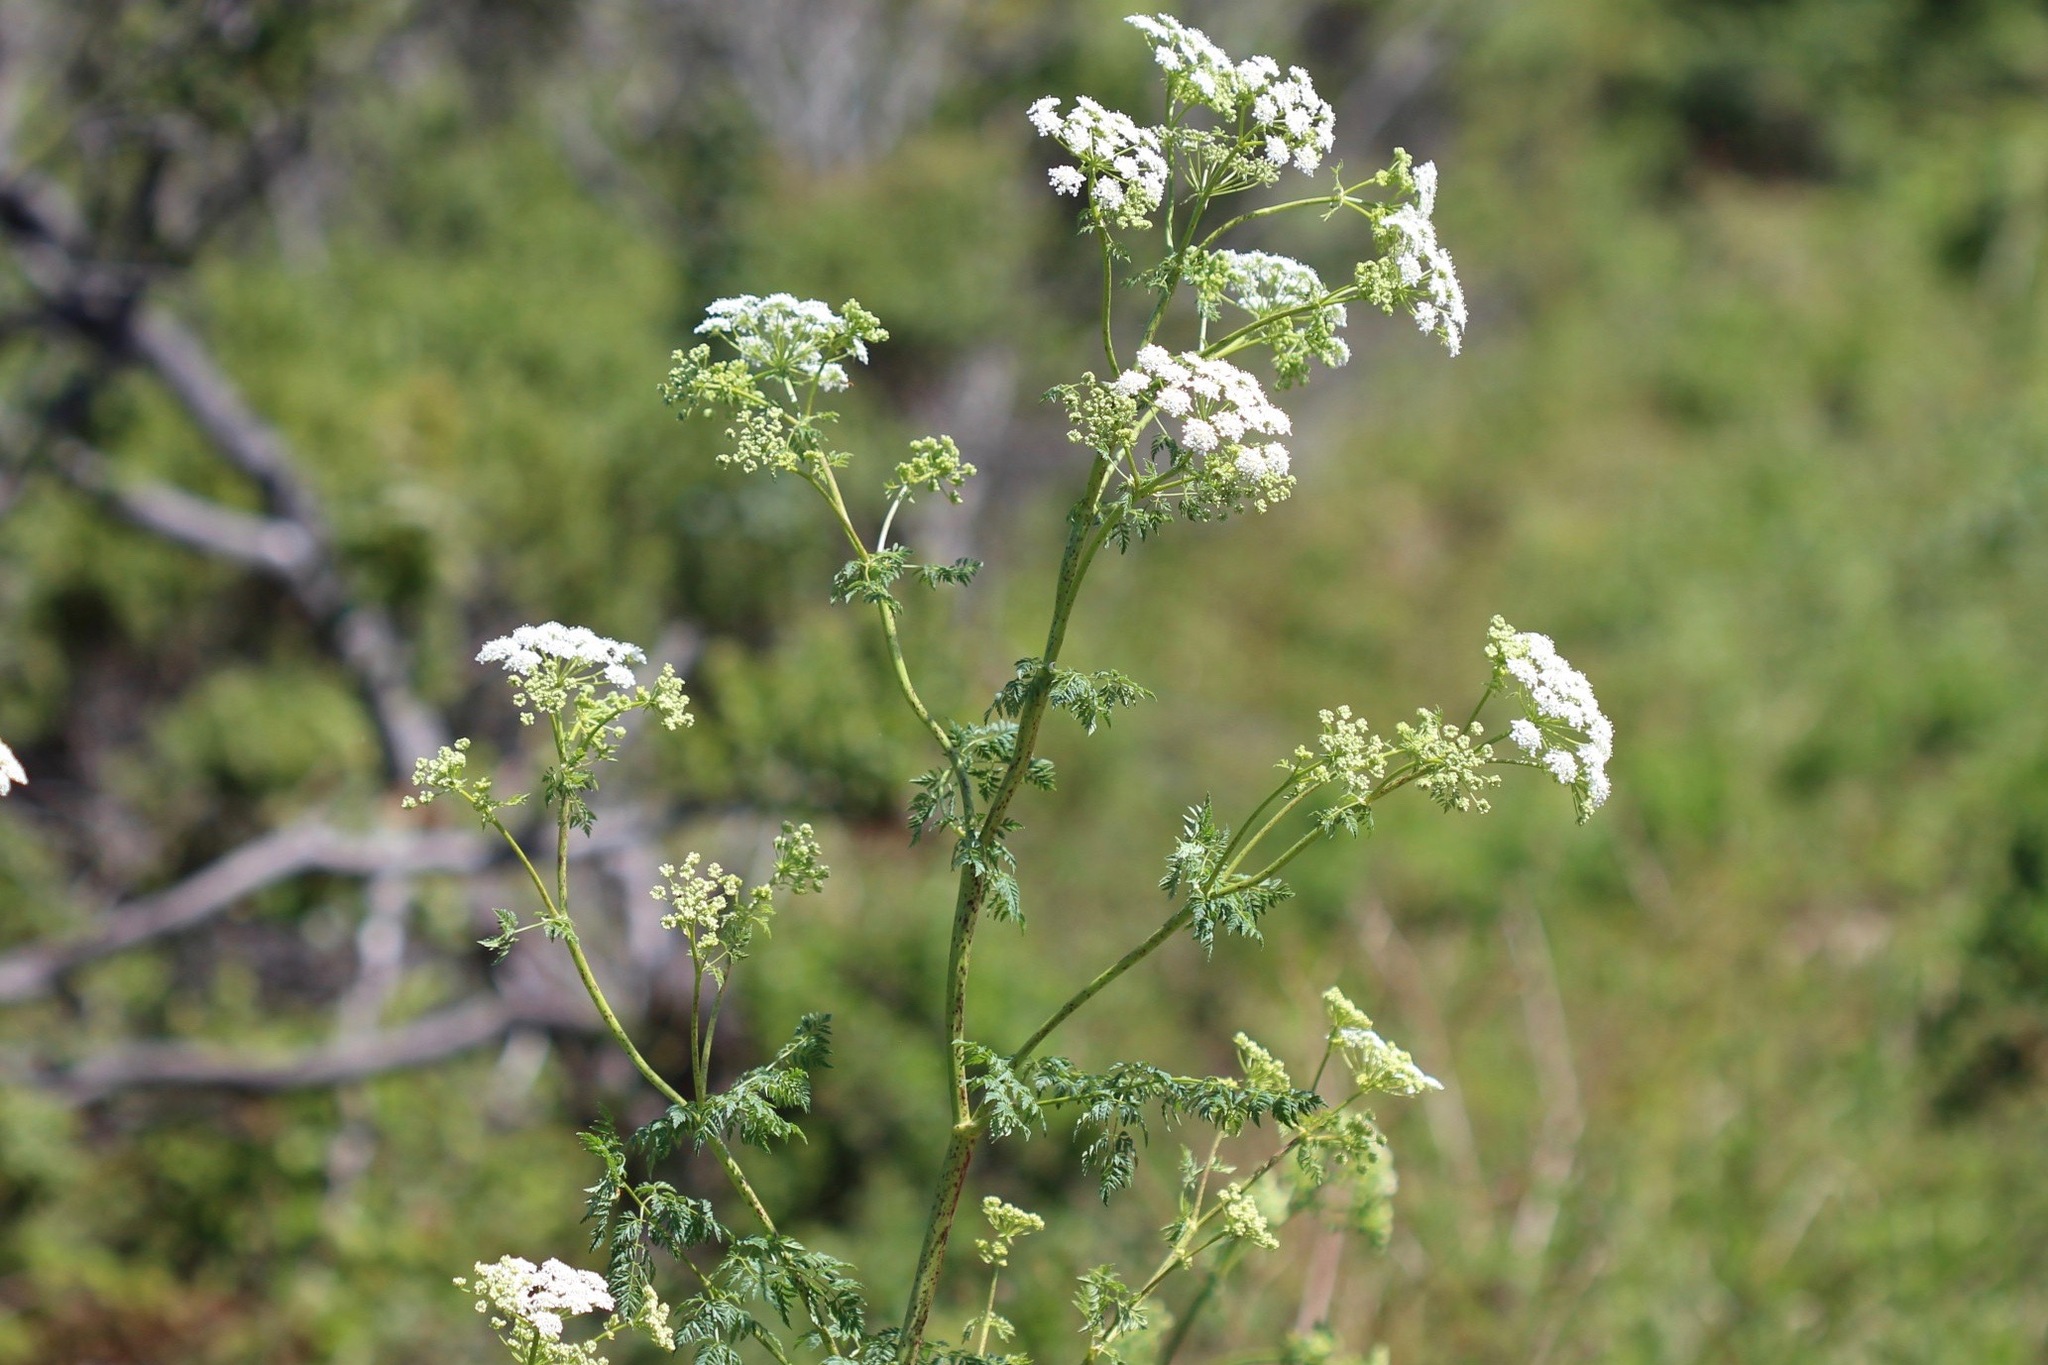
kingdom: Plantae
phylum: Tracheophyta
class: Magnoliopsida
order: Apiales
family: Apiaceae
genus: Conium
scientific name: Conium maculatum
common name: Hemlock
